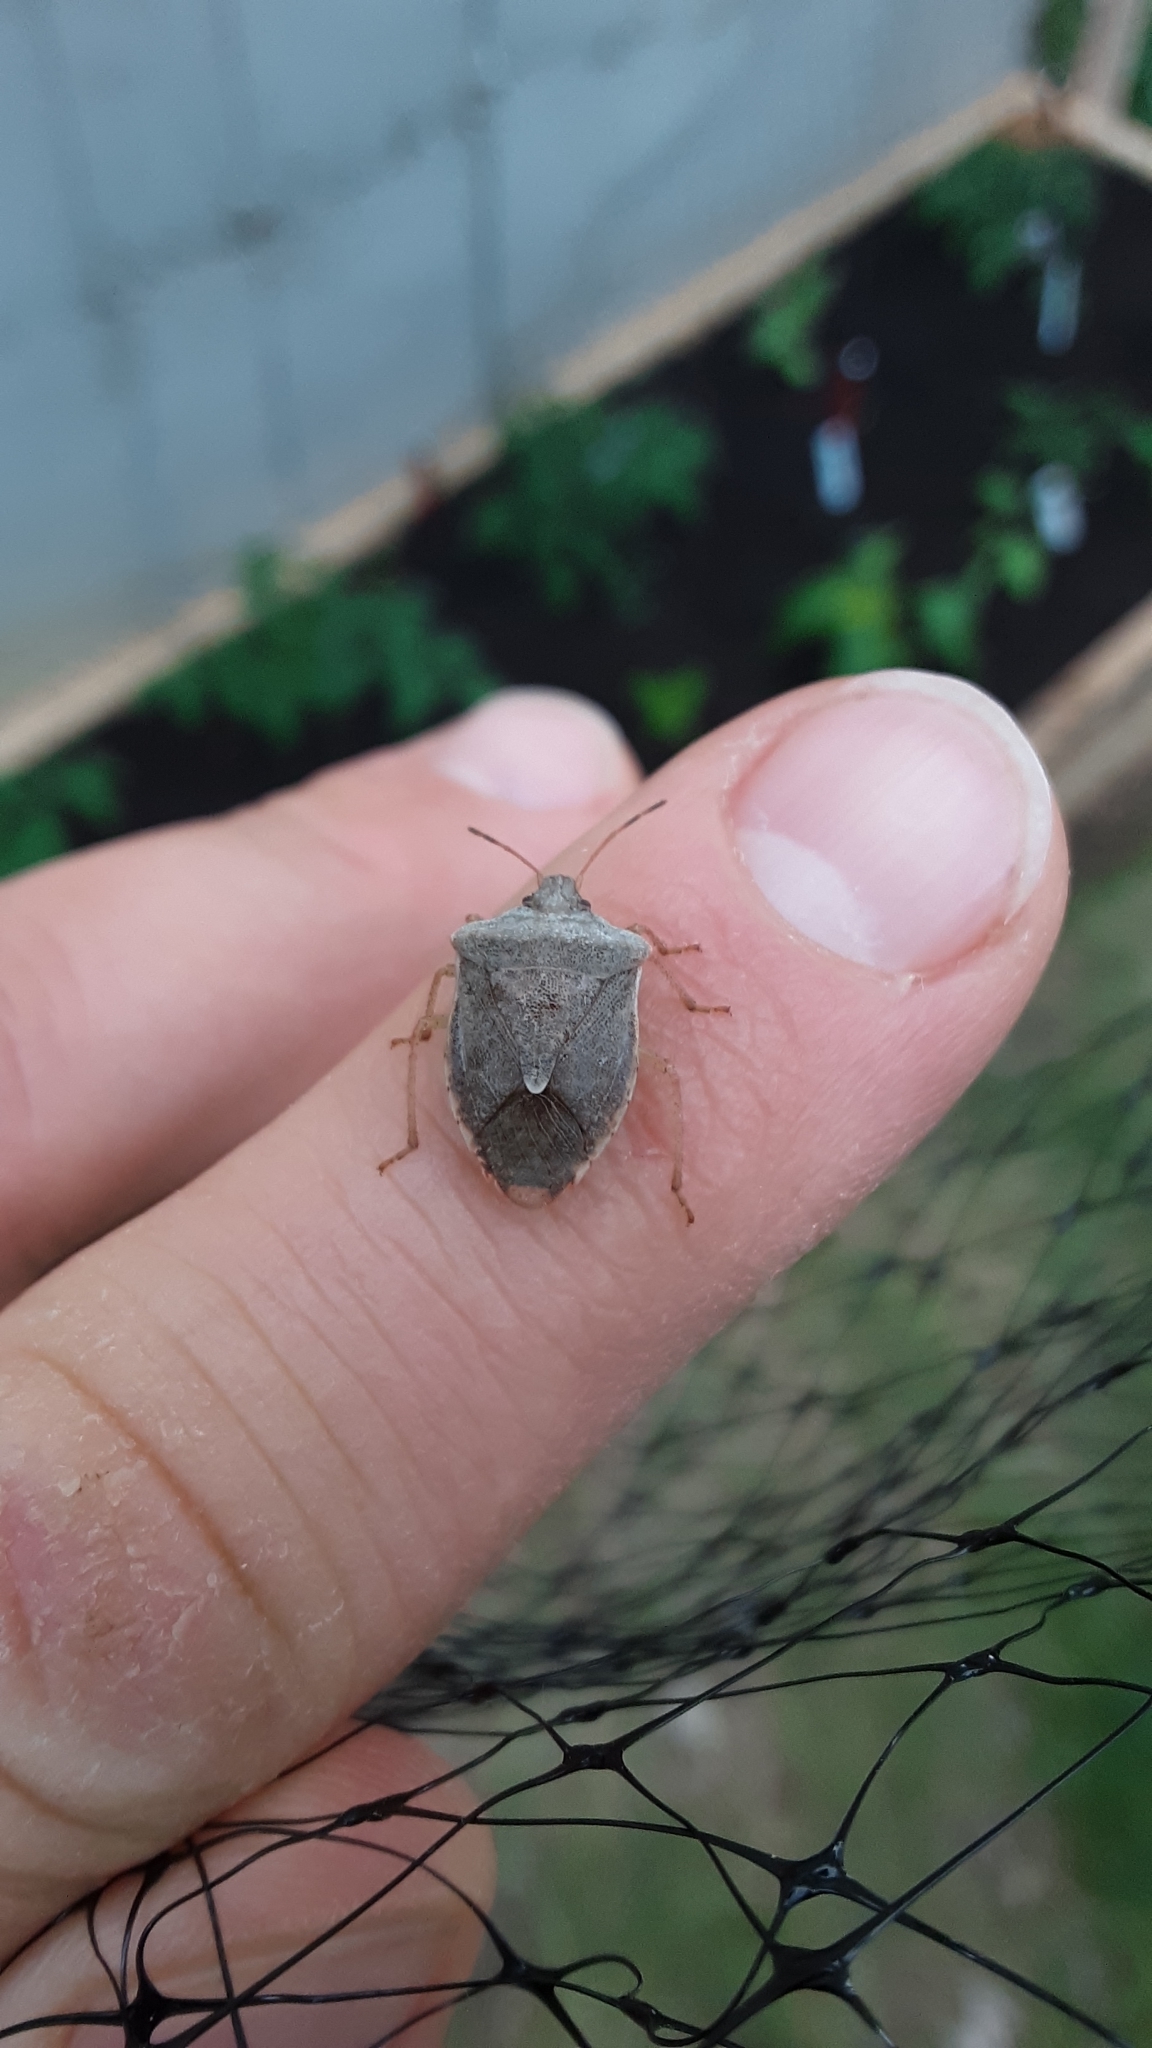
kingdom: Animalia
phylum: Arthropoda
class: Insecta
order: Hemiptera
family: Pentatomidae
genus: Euschistus
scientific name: Euschistus servus
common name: Brown stink bug
